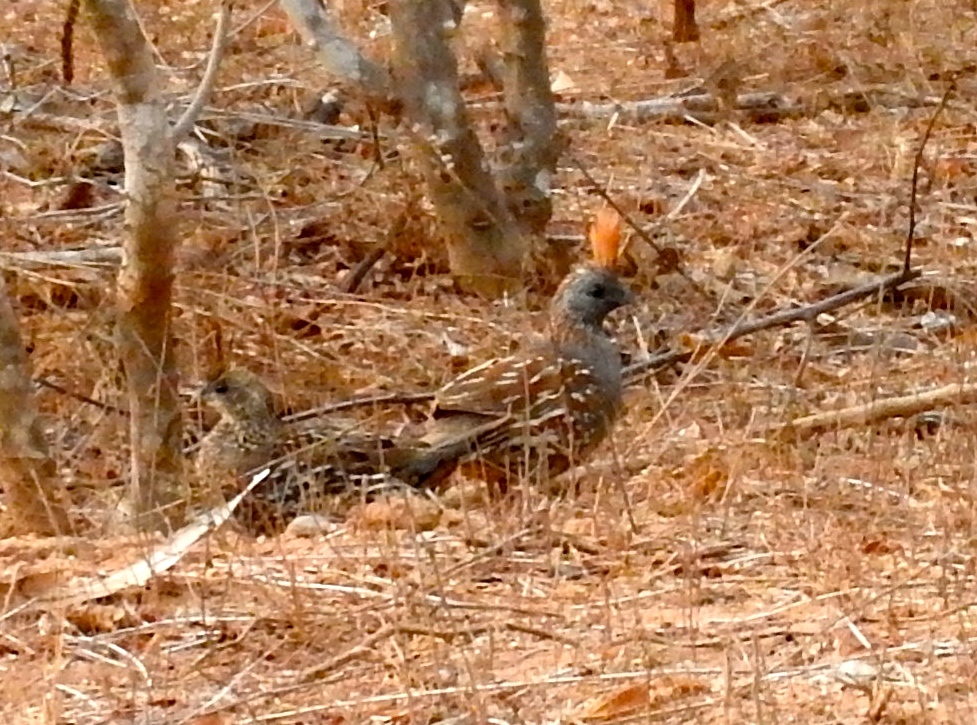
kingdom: Animalia
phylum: Chordata
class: Aves
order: Galliformes
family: Odontophoridae
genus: Callipepla
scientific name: Callipepla douglasii
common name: Elegant quail
